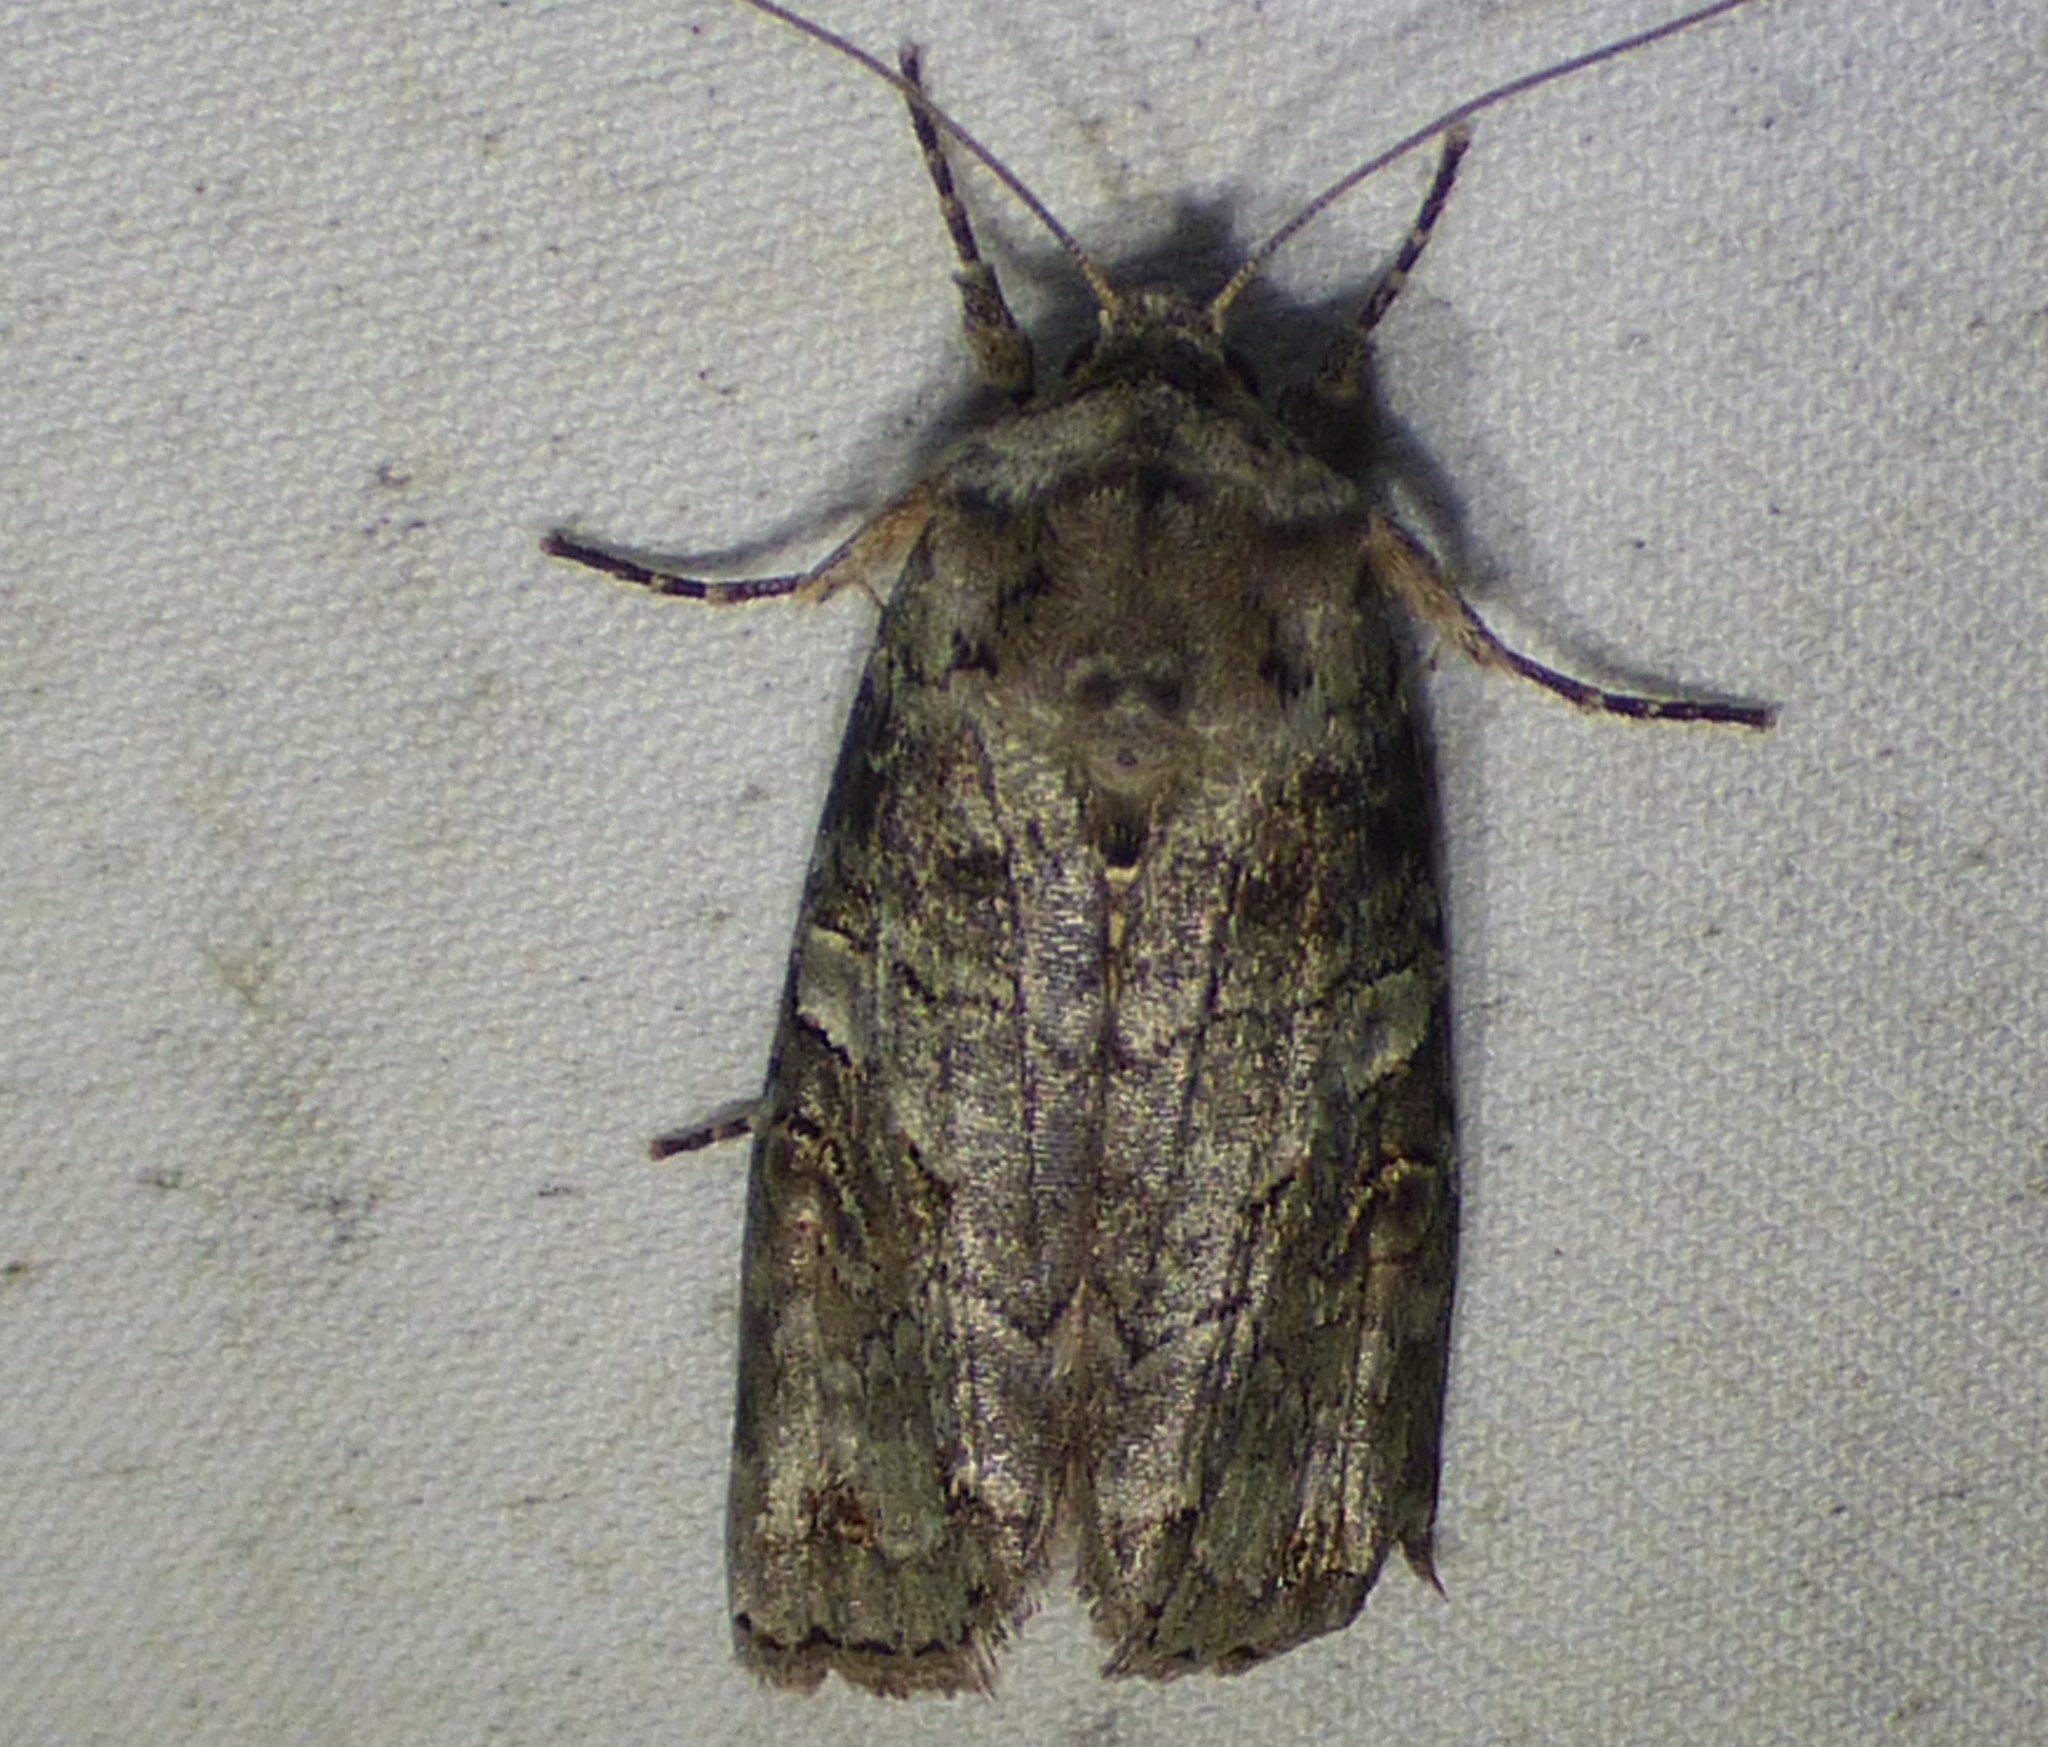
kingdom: Animalia
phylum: Arthropoda
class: Insecta
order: Lepidoptera
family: Noctuidae
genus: Egira
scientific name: Egira alternans
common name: Alternate woodling
